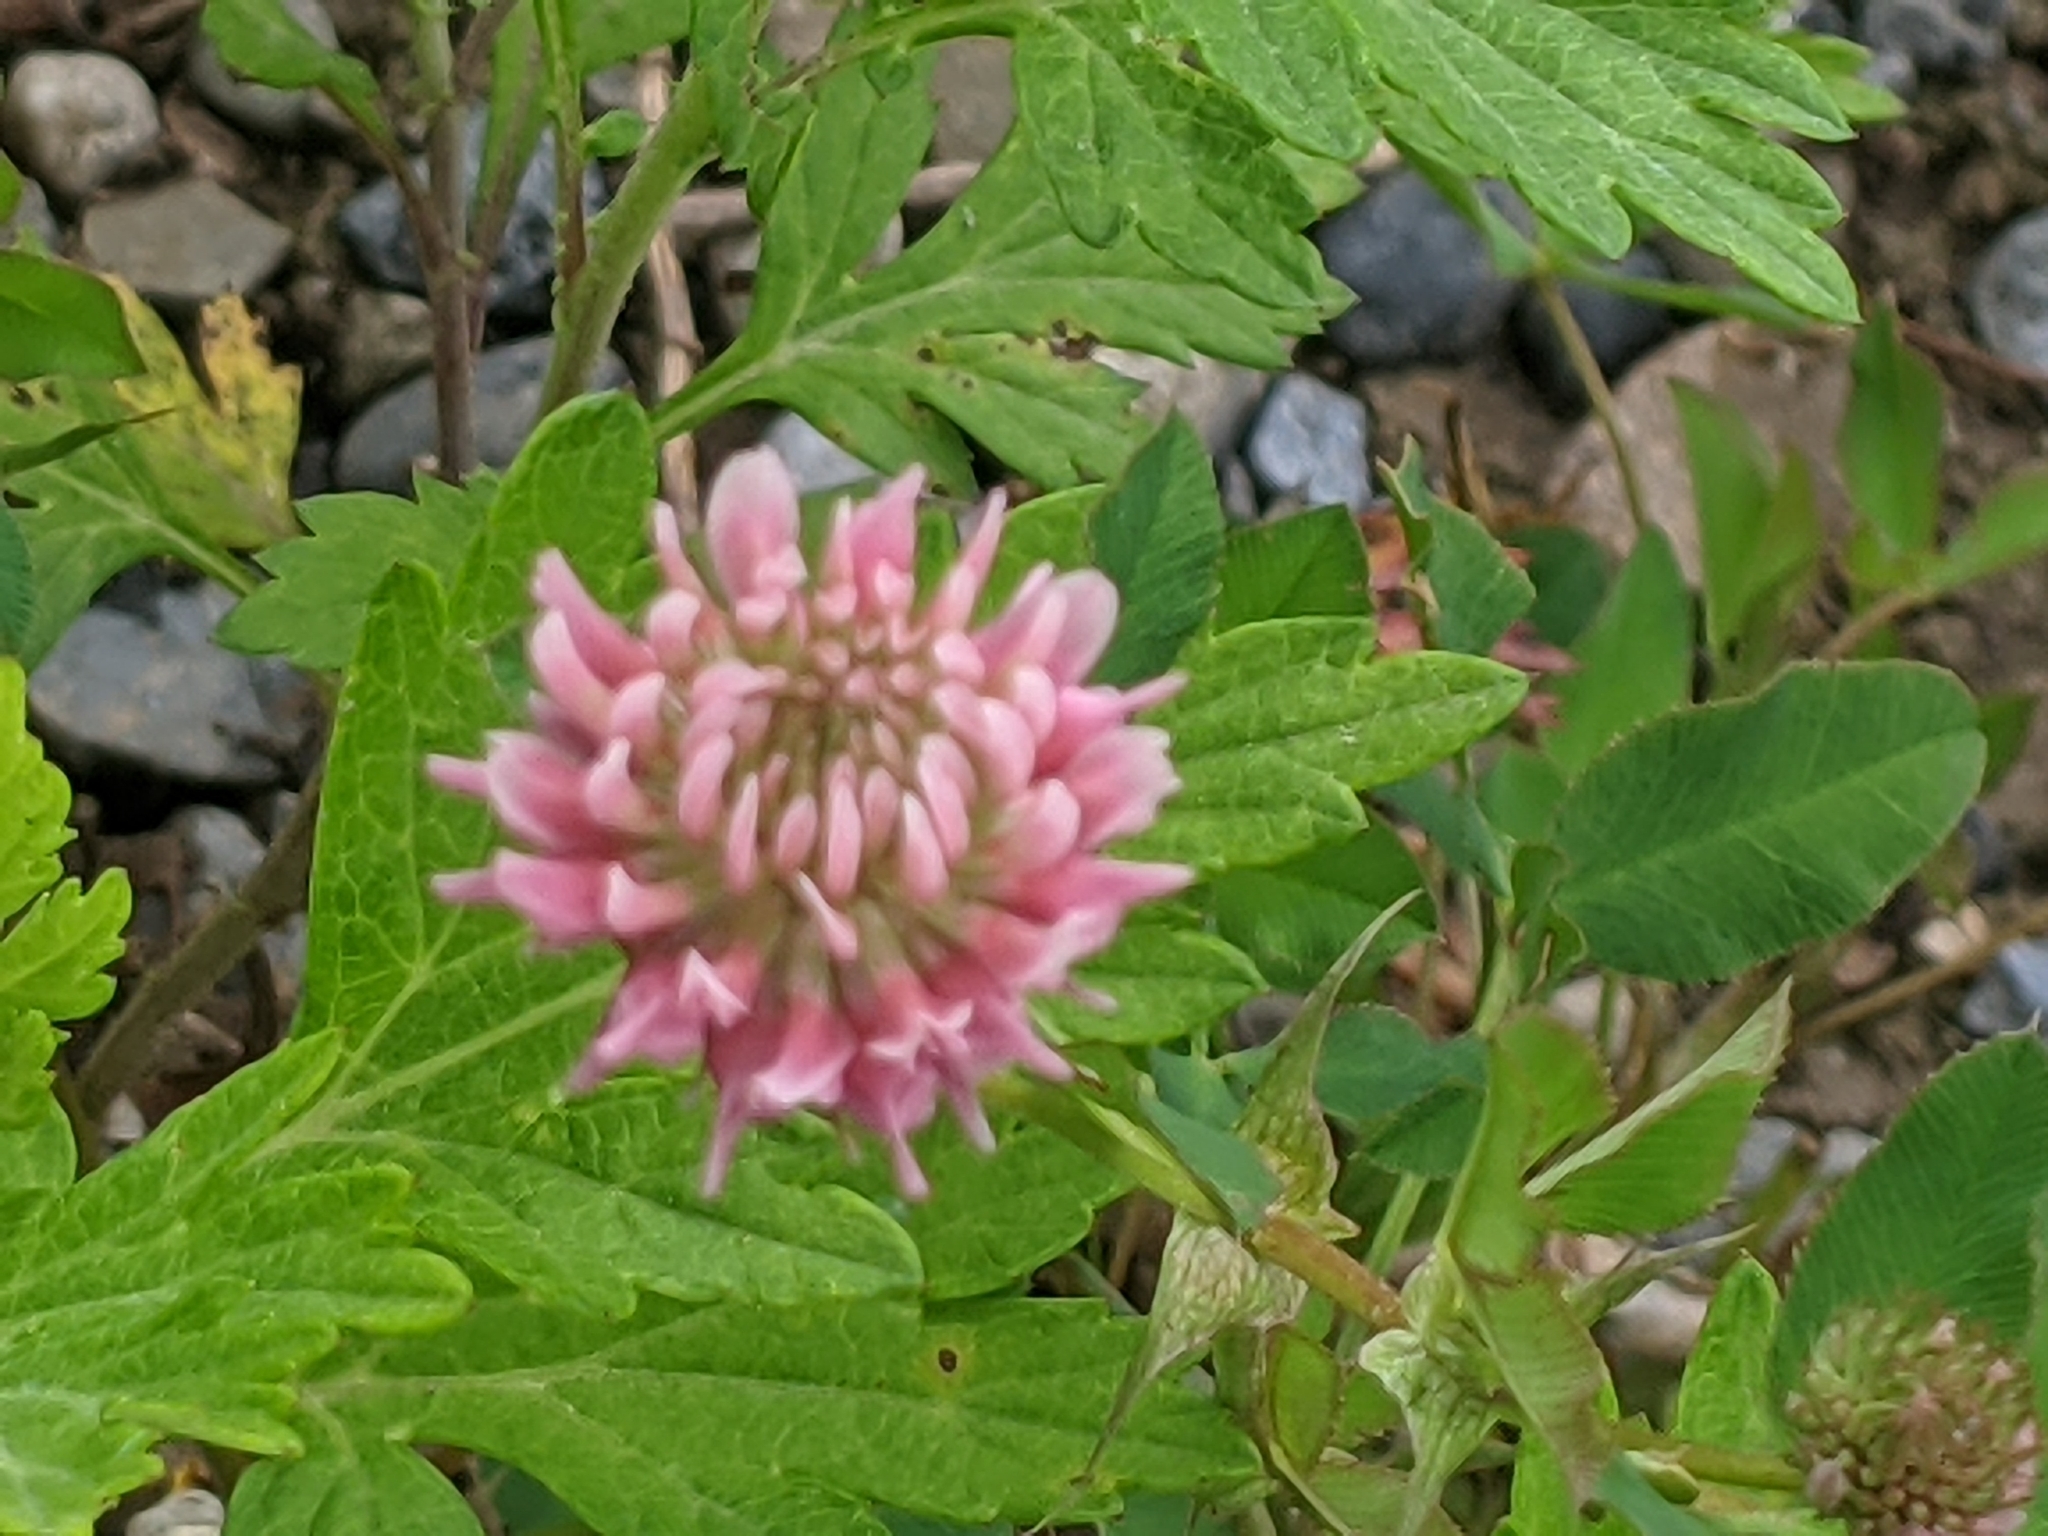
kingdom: Plantae
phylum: Tracheophyta
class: Magnoliopsida
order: Fabales
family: Fabaceae
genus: Trifolium
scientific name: Trifolium pratense
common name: Red clover
